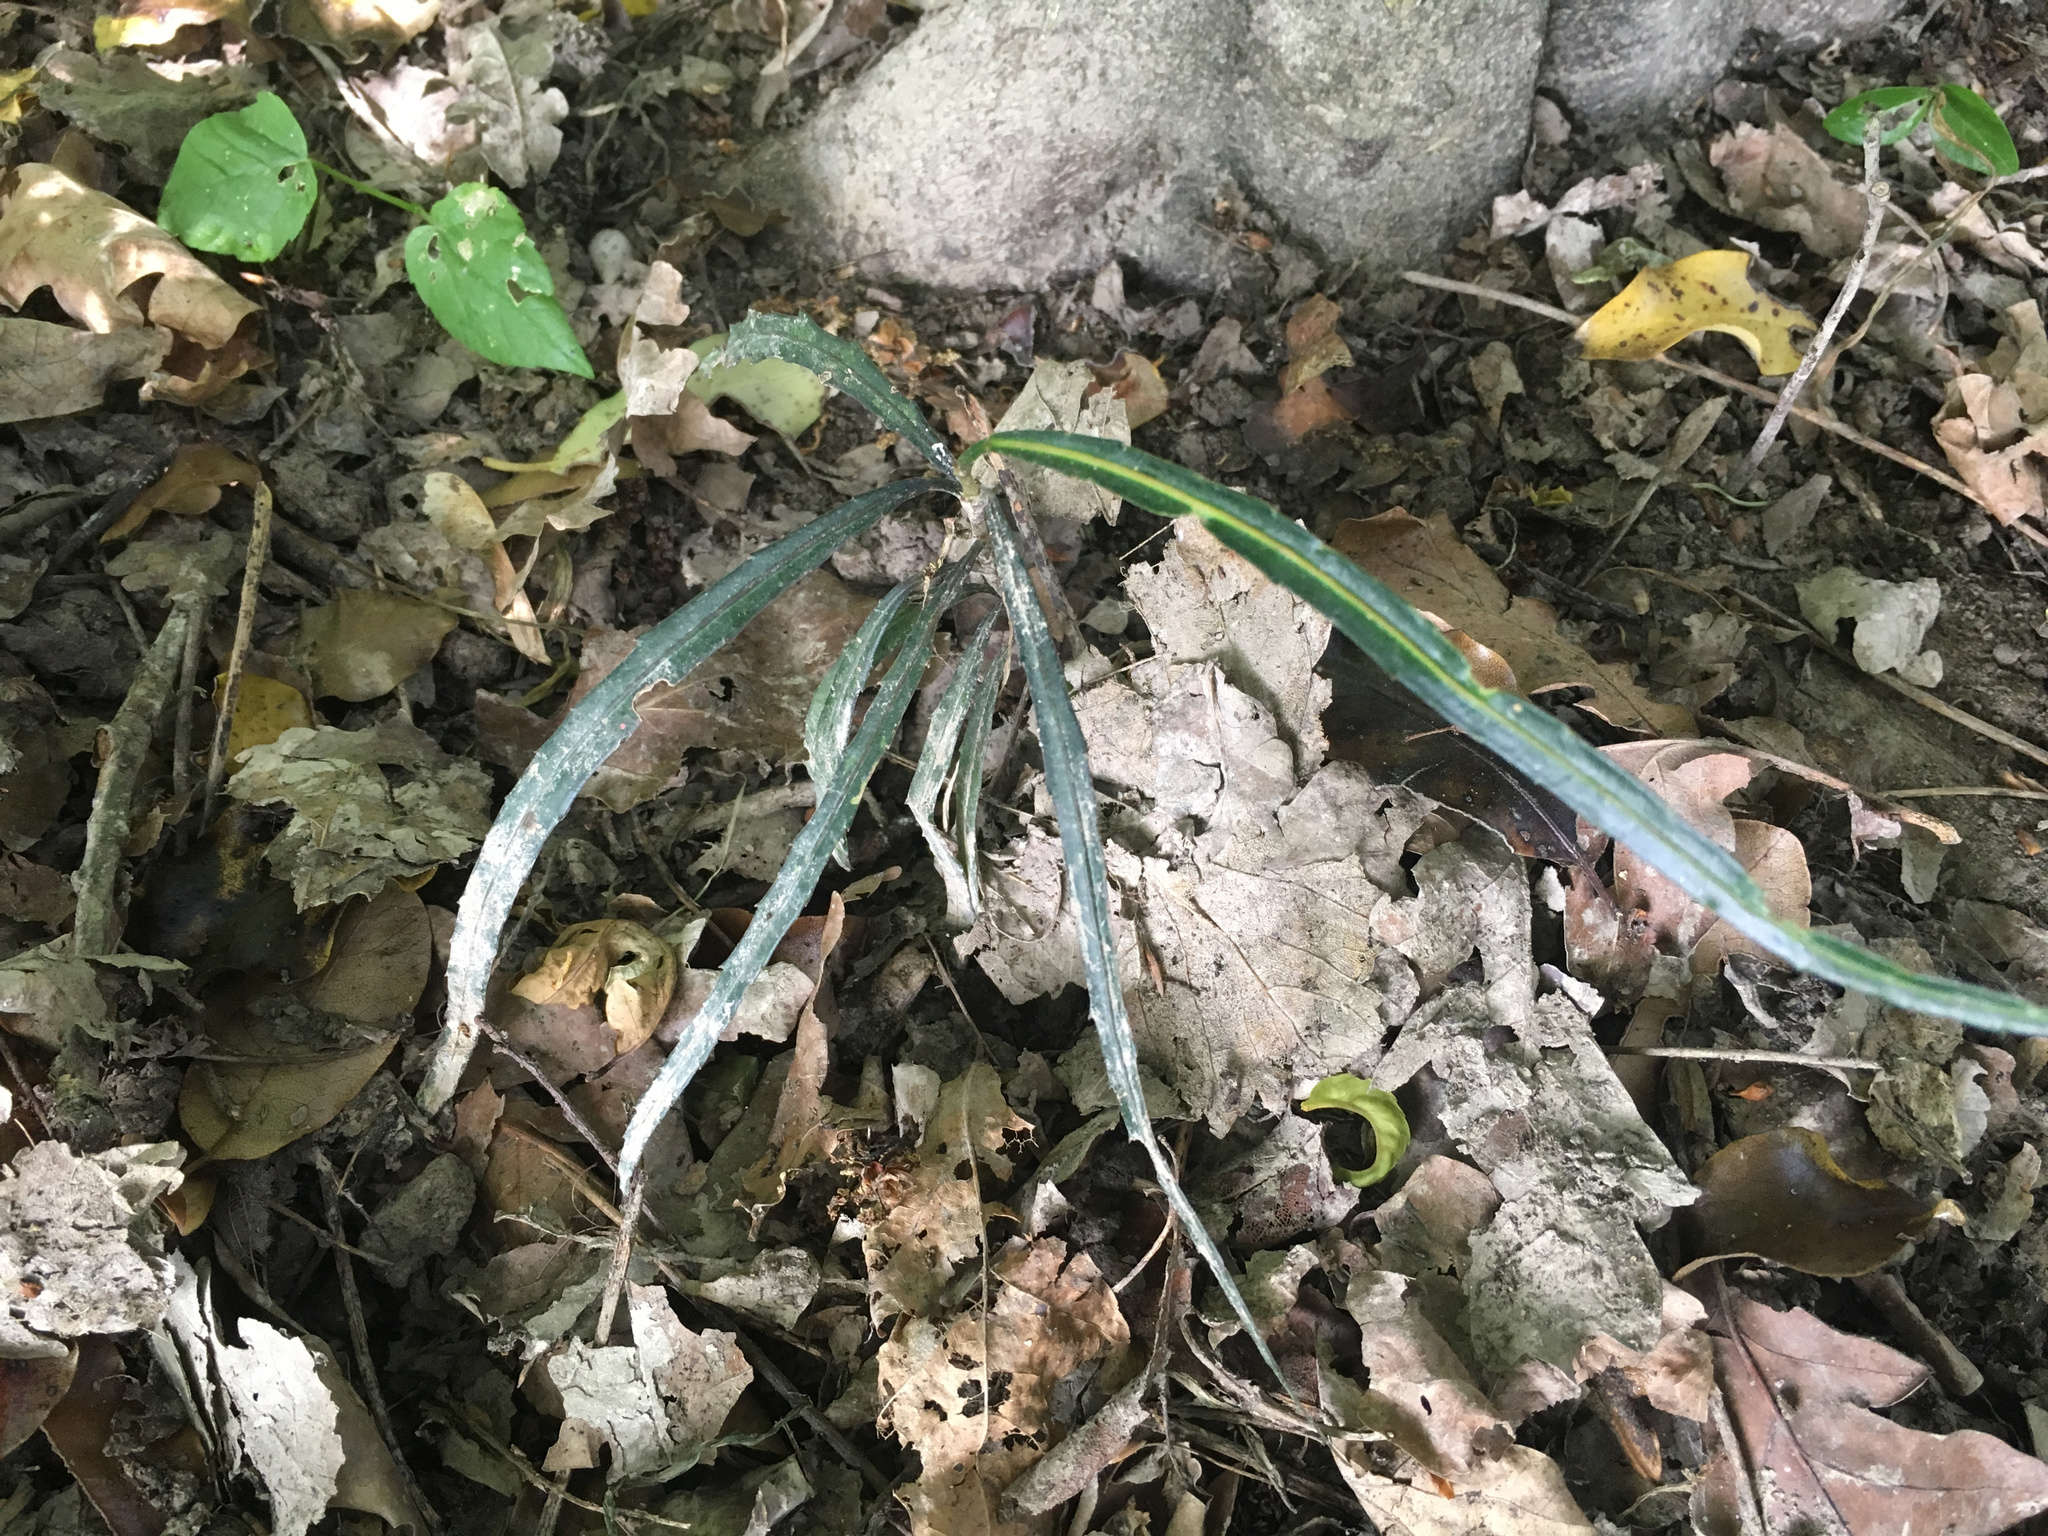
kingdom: Plantae
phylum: Tracheophyta
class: Magnoliopsida
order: Apiales
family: Araliaceae
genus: Pseudopanax
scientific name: Pseudopanax crassifolius
